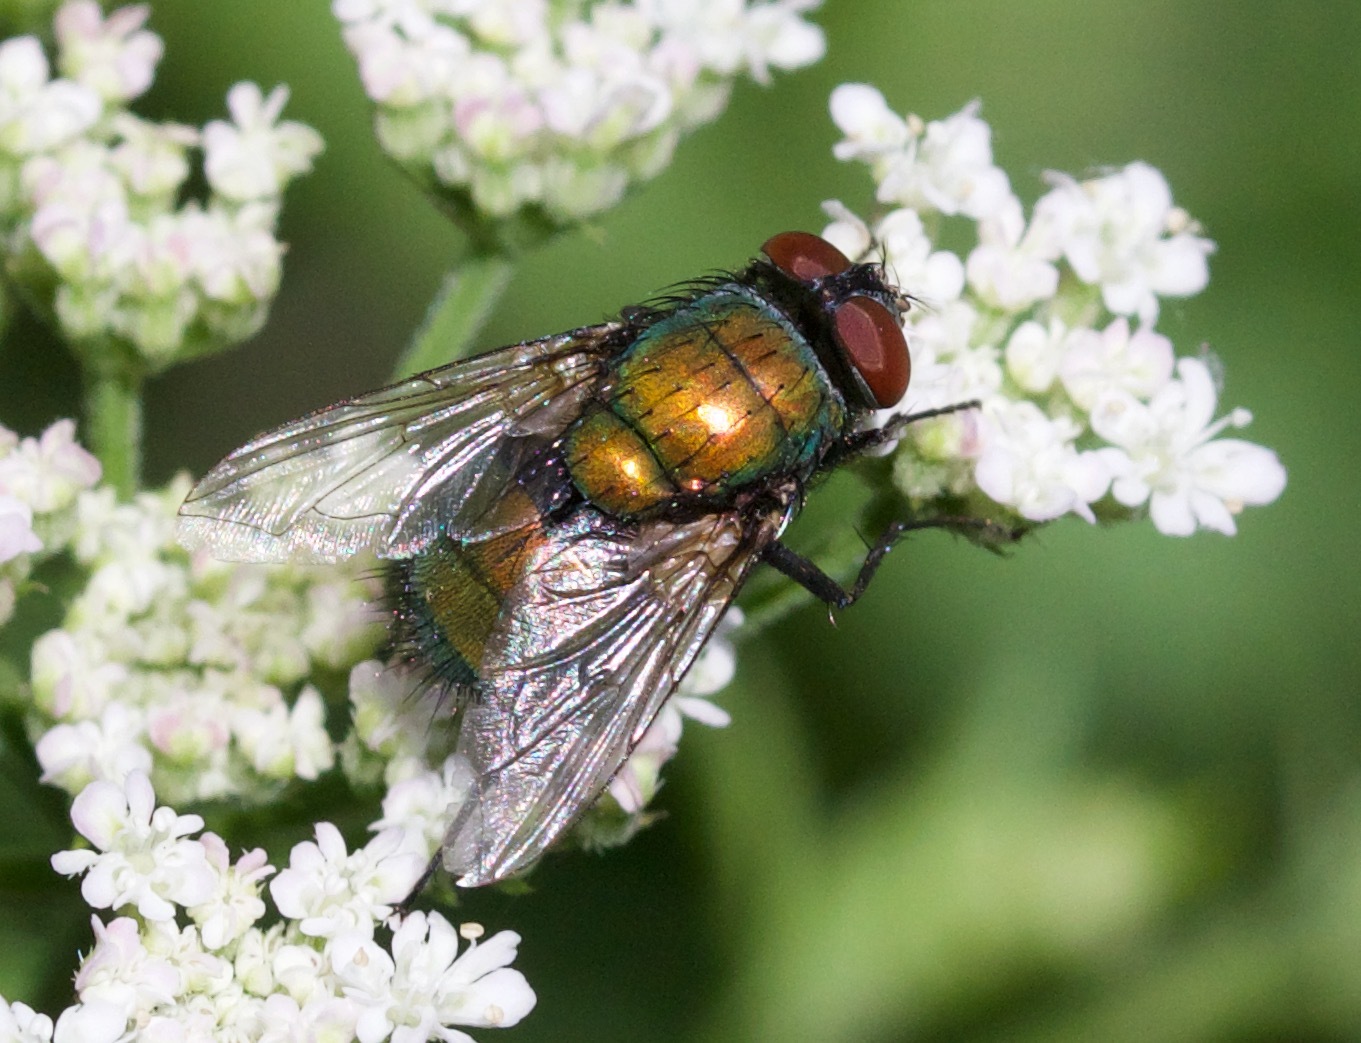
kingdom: Animalia
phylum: Arthropoda
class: Insecta
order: Diptera
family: Calliphoridae
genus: Lucilia
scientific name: Lucilia sericata
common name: Blow fly
